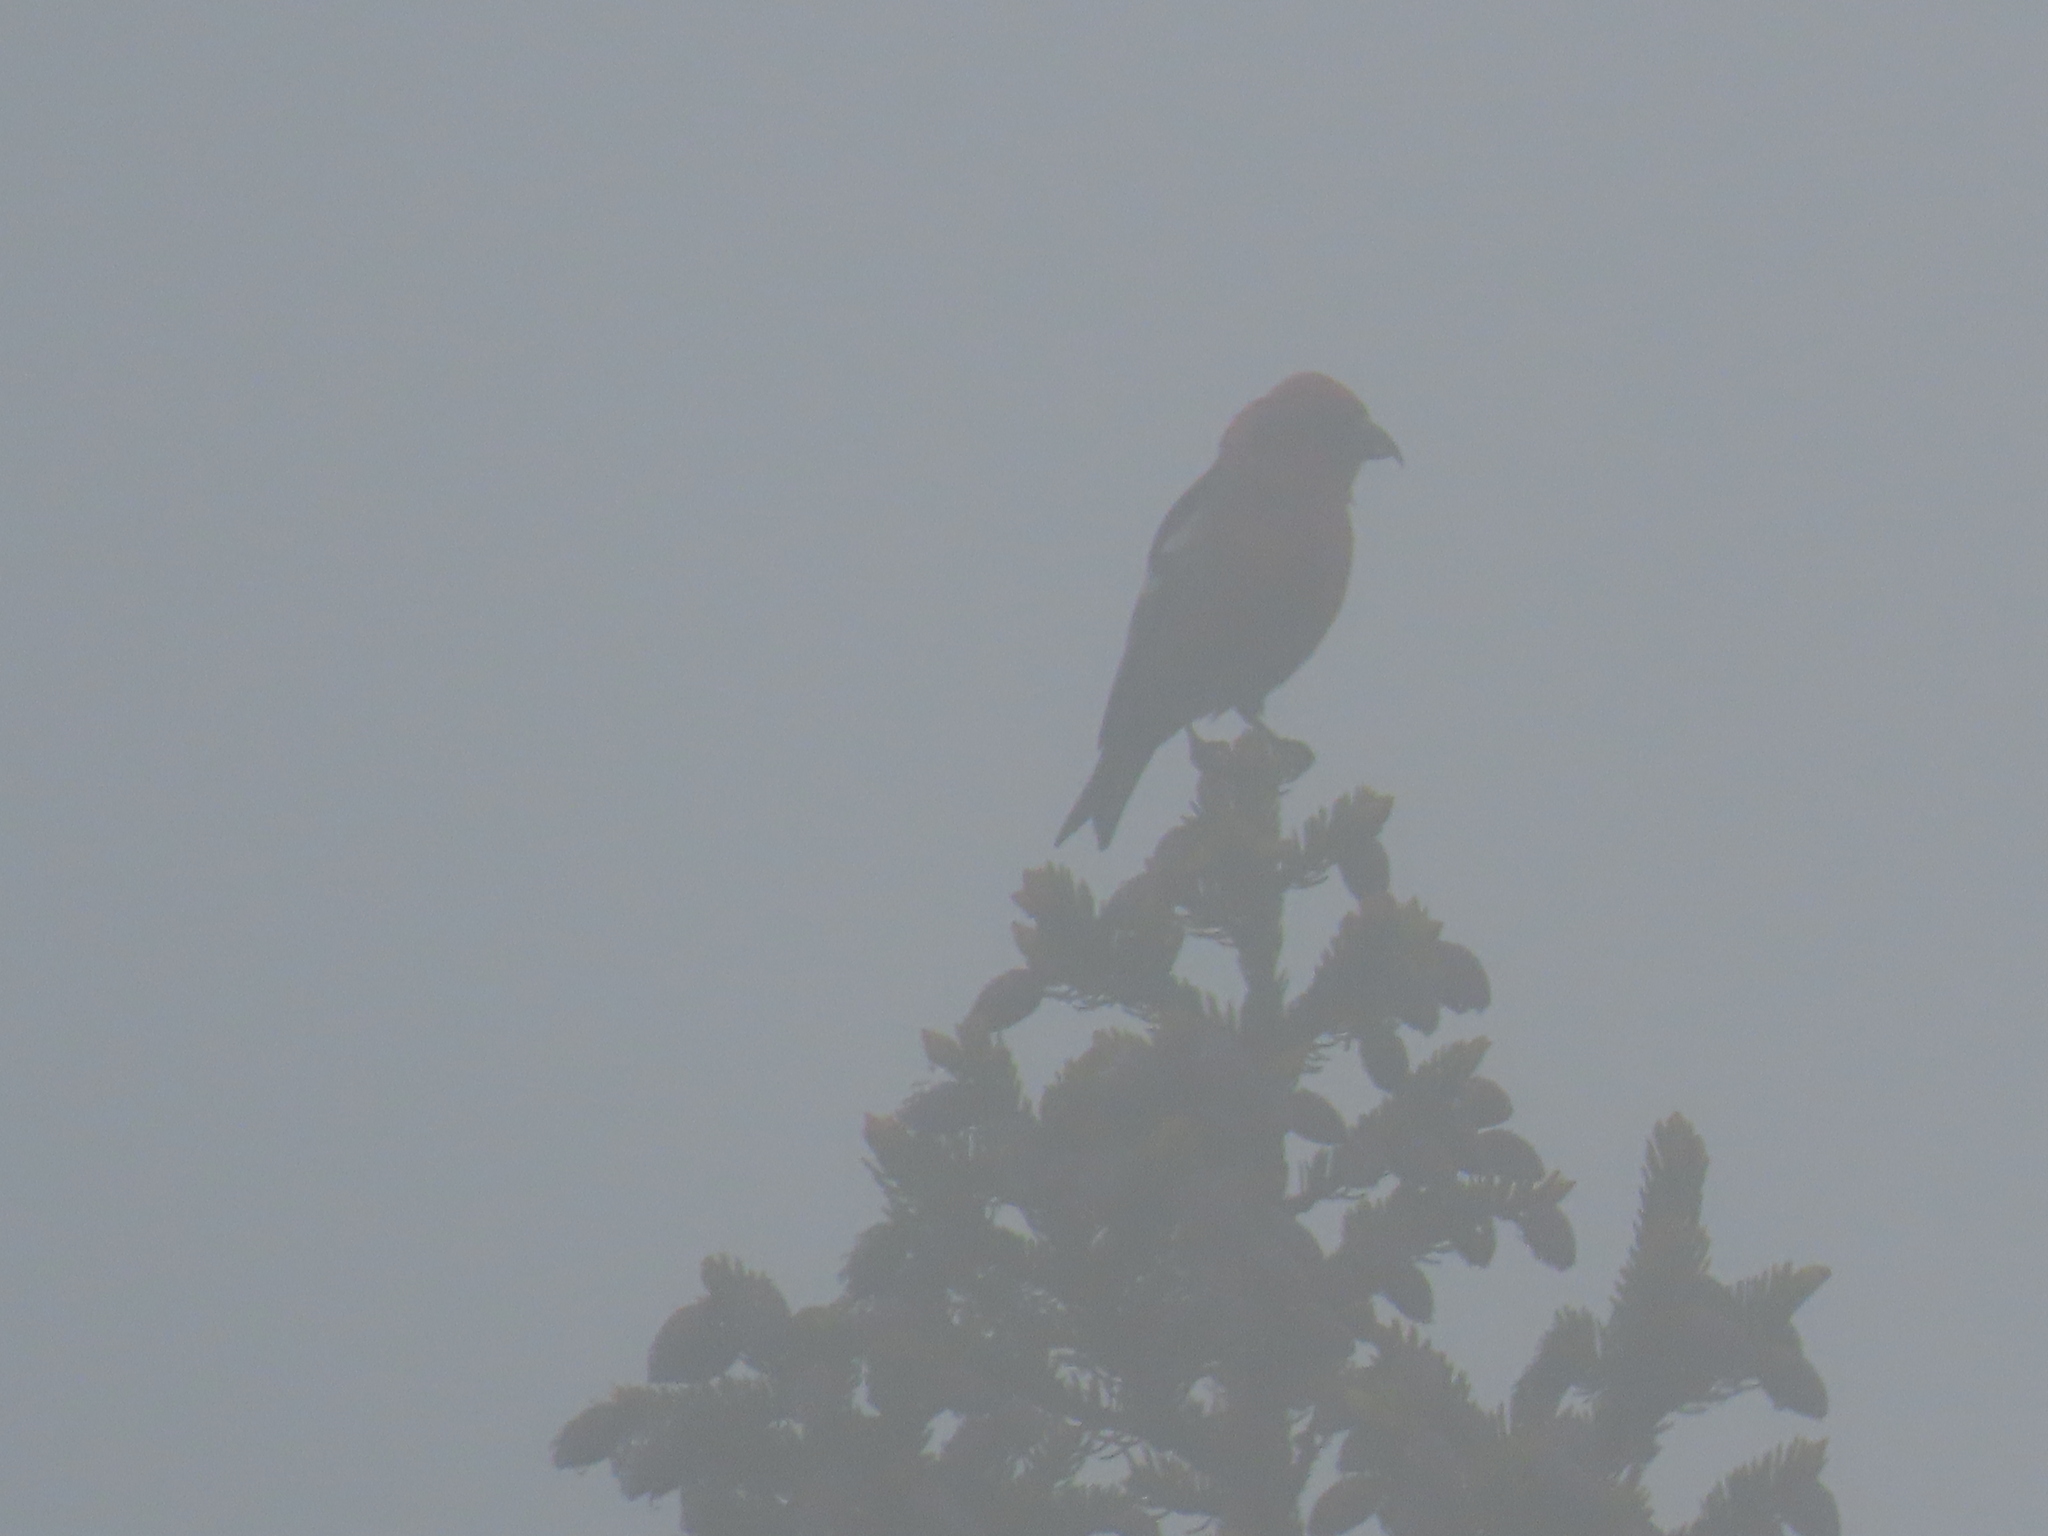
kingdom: Animalia
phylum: Chordata
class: Aves
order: Passeriformes
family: Fringillidae
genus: Loxia
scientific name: Loxia leucoptera
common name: Two-barred crossbill
